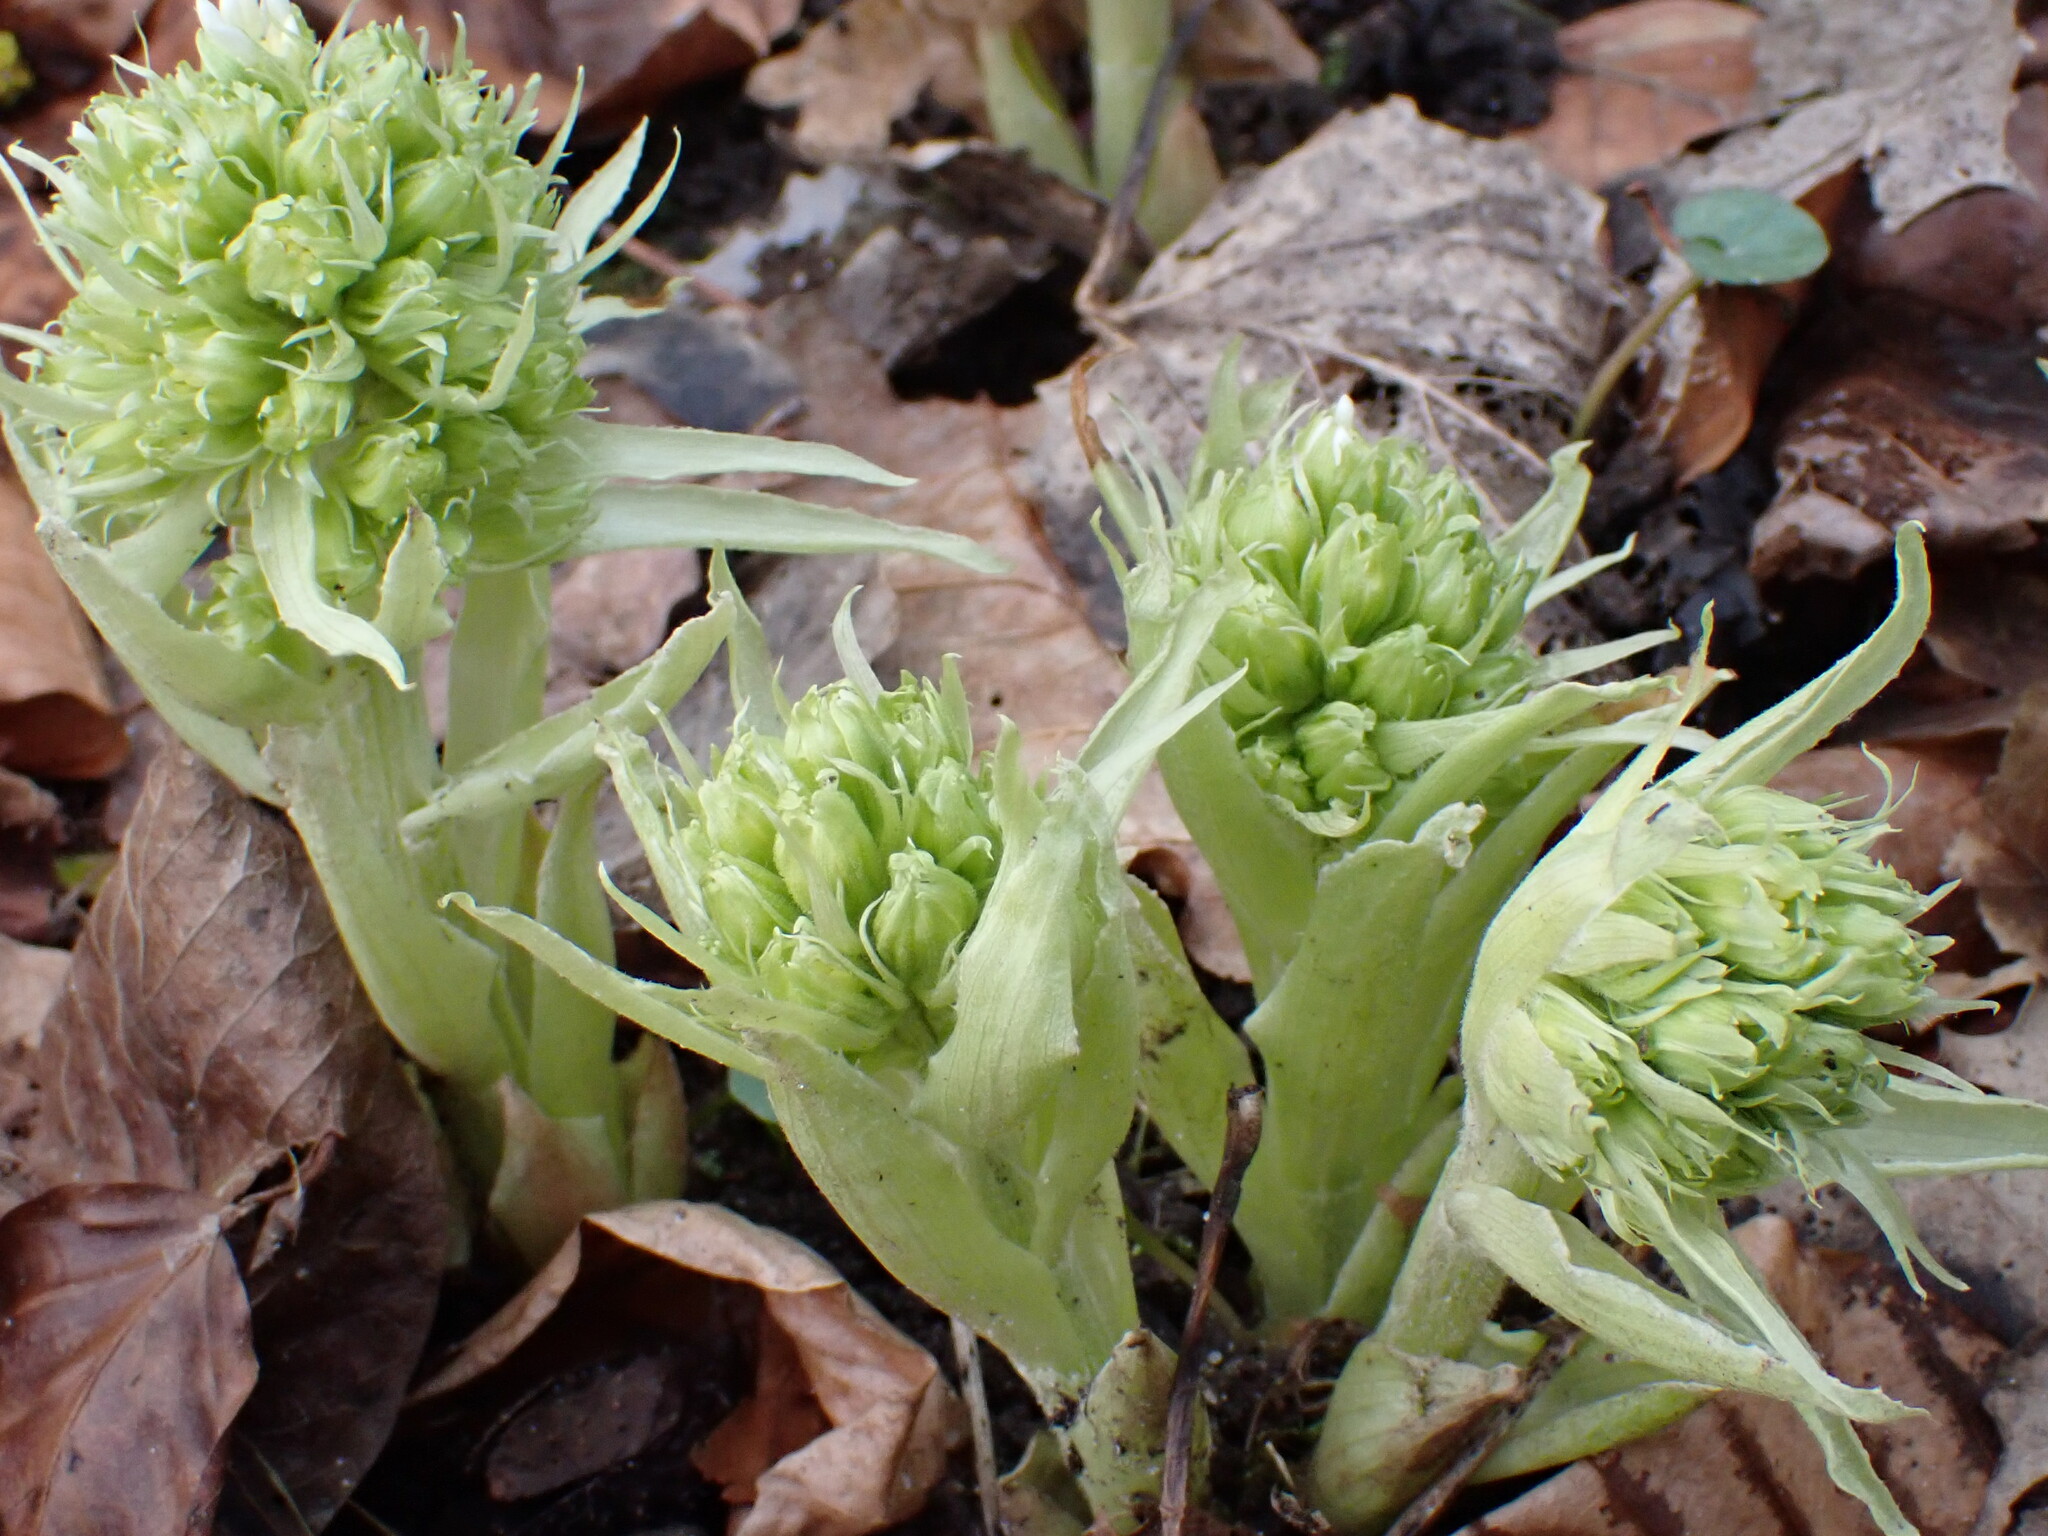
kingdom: Plantae
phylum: Tracheophyta
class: Magnoliopsida
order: Asterales
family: Asteraceae
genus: Petasites
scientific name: Petasites japonicus
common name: Giant butterbur
